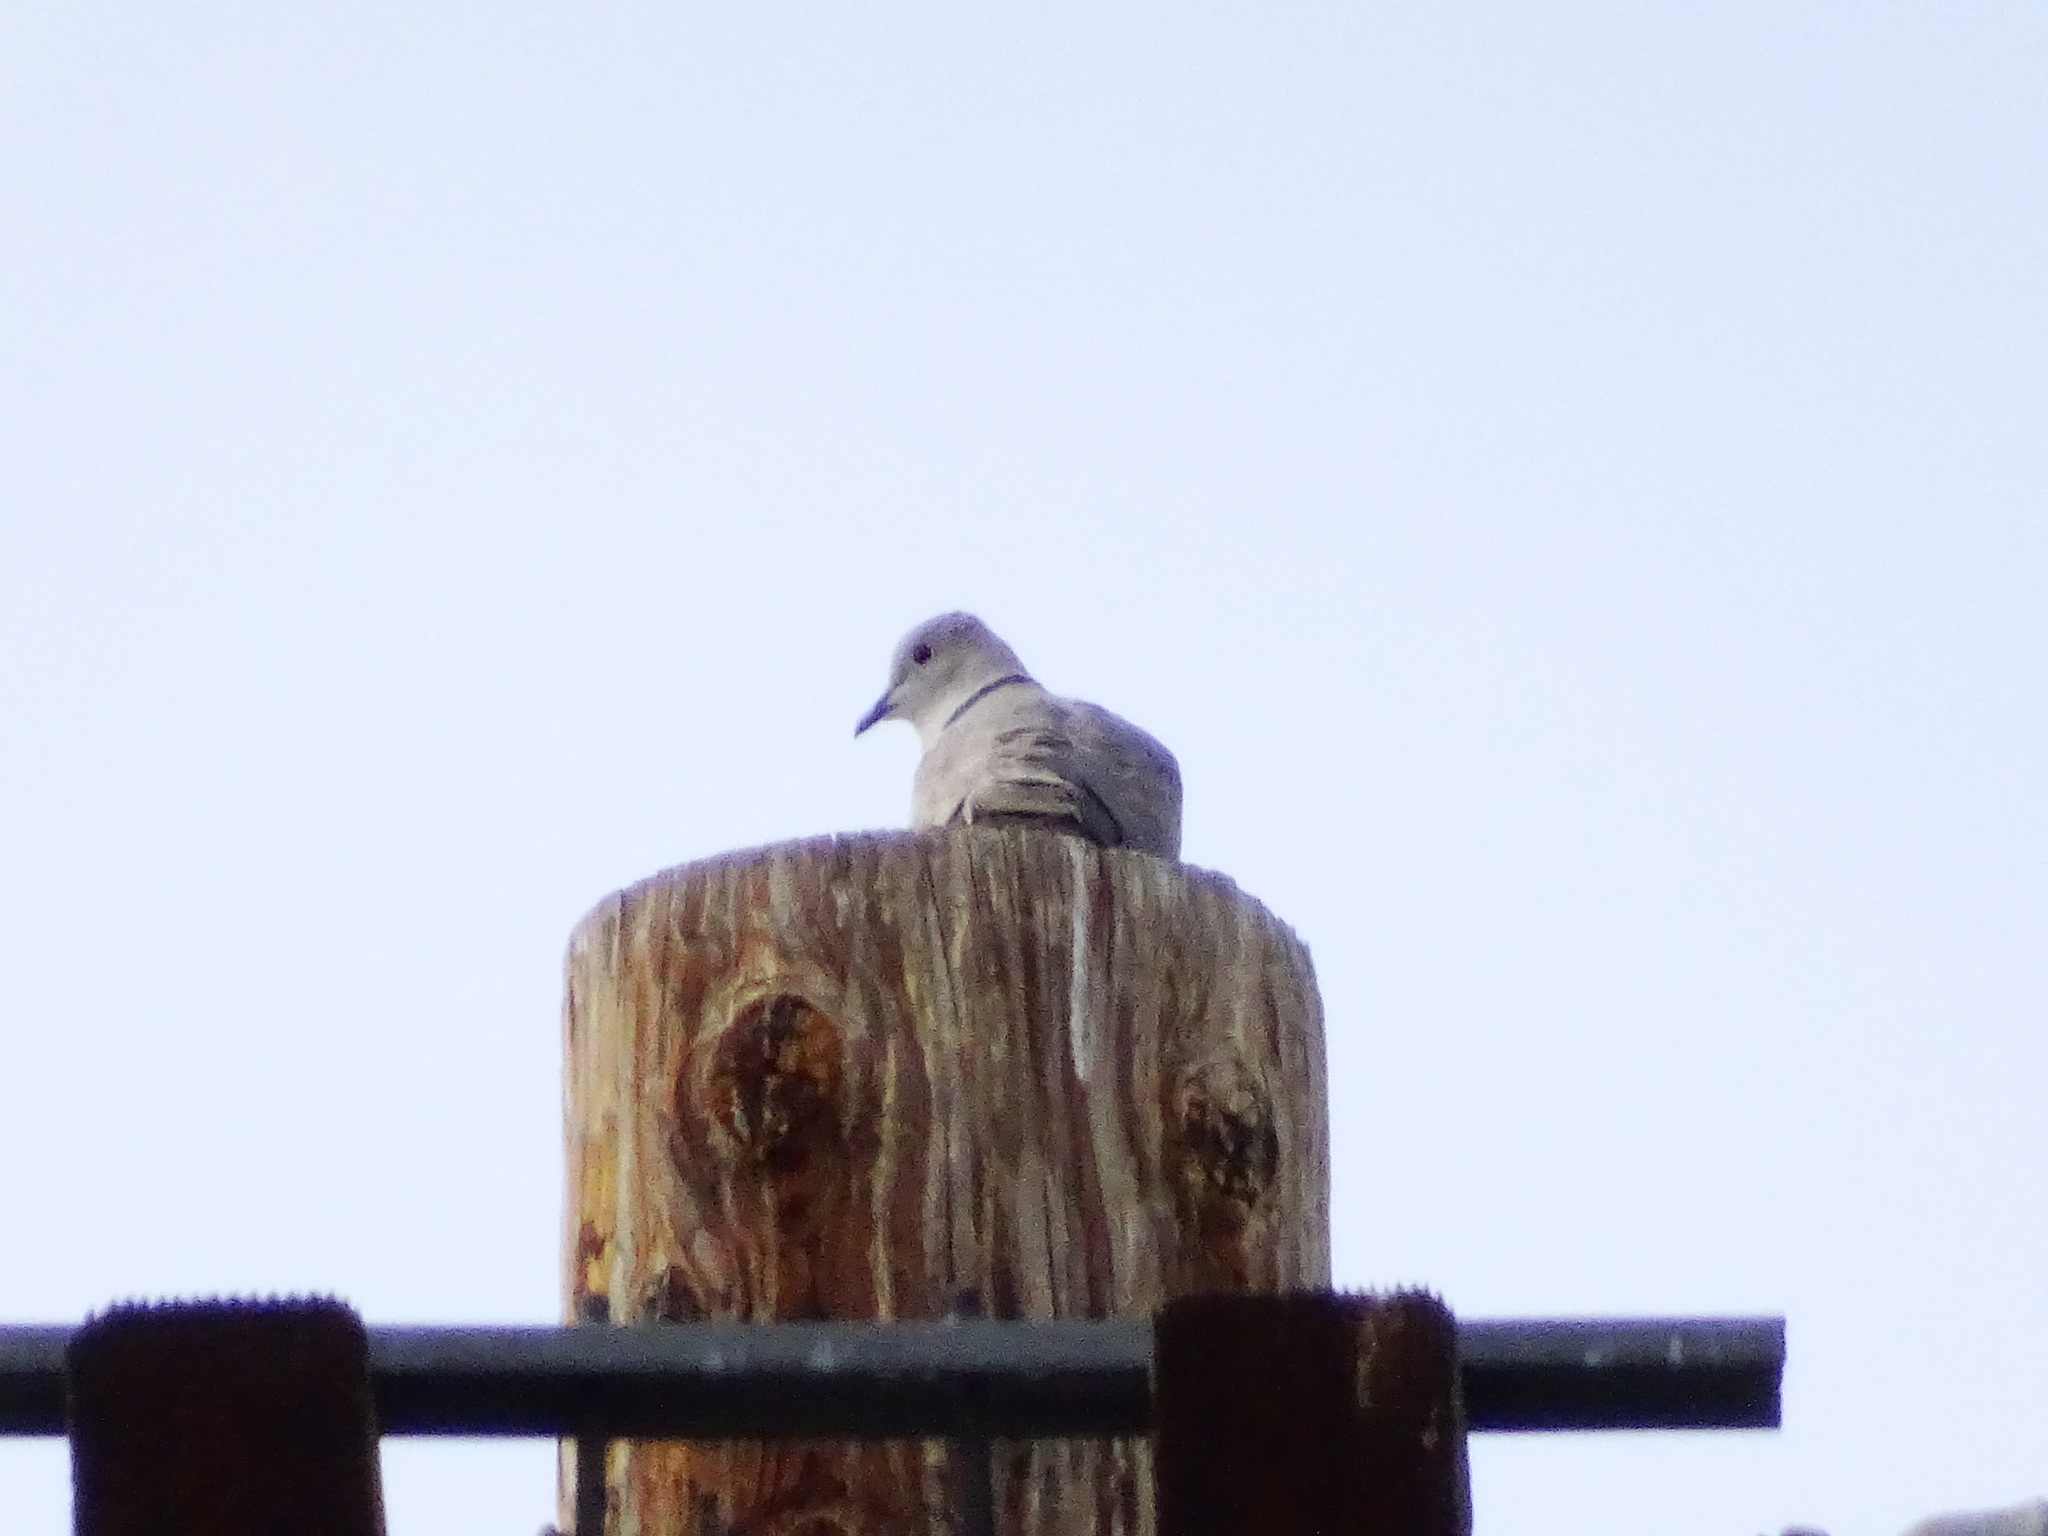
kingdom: Animalia
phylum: Chordata
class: Aves
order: Columbiformes
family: Columbidae
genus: Streptopelia
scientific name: Streptopelia decaocto
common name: Eurasian collared dove
